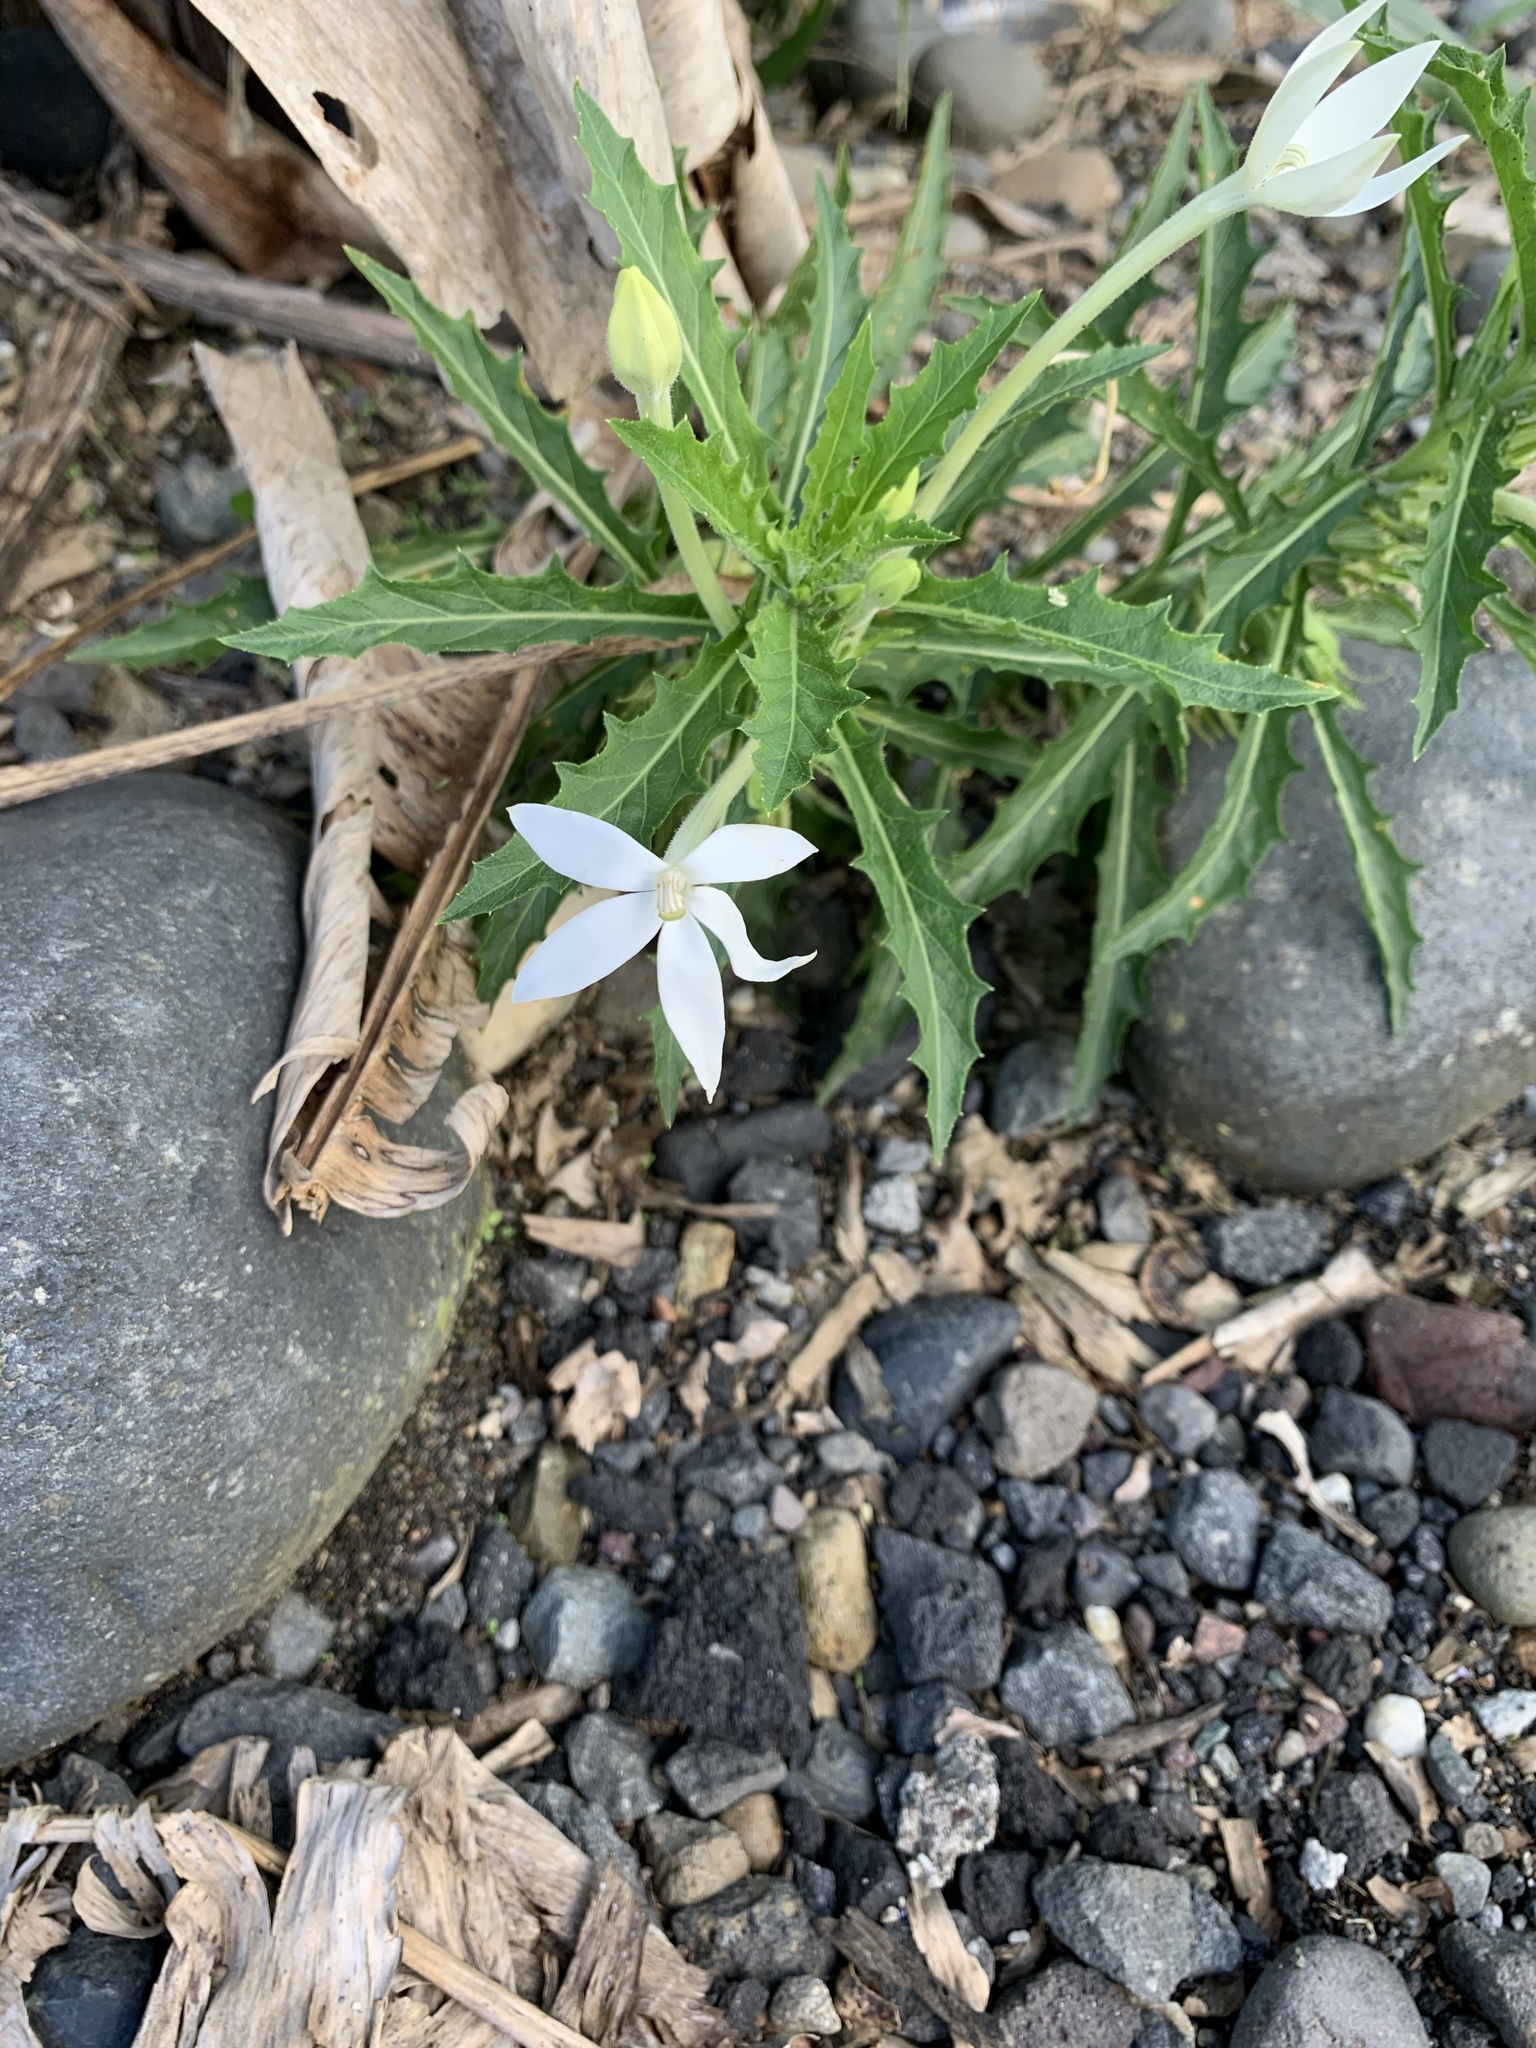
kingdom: Plantae
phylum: Tracheophyta
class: Magnoliopsida
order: Asterales
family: Campanulaceae
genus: Hippobroma
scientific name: Hippobroma longiflora
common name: Madamfate
